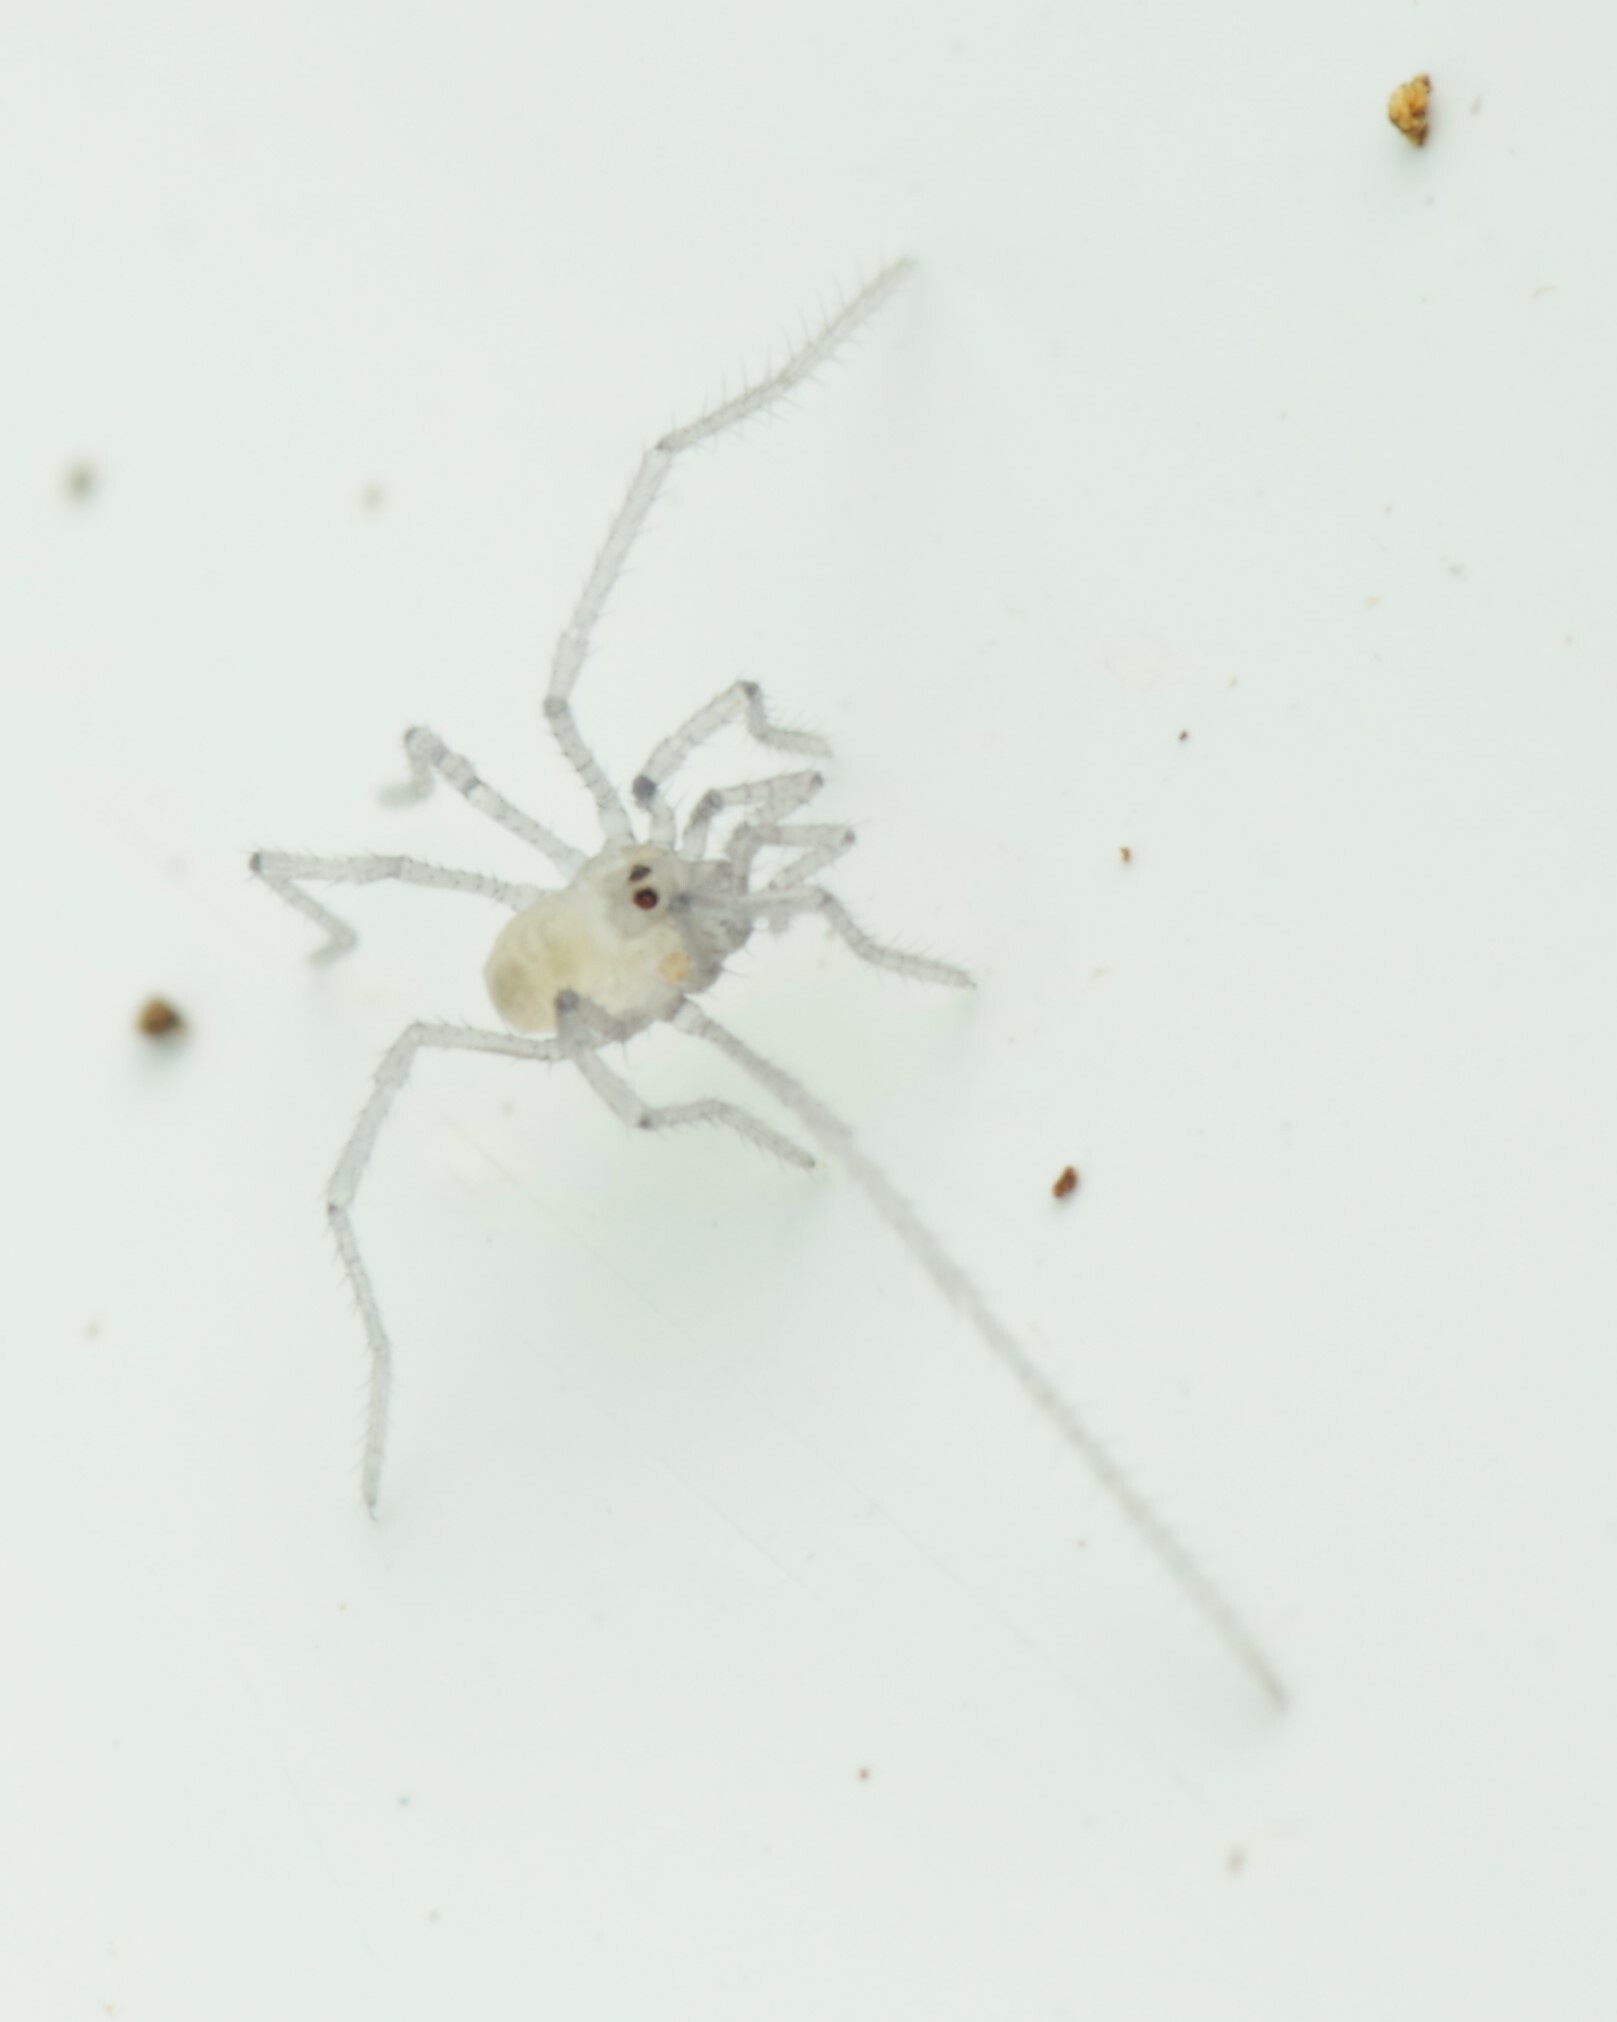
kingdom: Animalia
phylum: Arthropoda
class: Arachnida
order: Opiliones
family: Nemastomatidae
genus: Mitostoma
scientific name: Mitostoma chrysomelas
